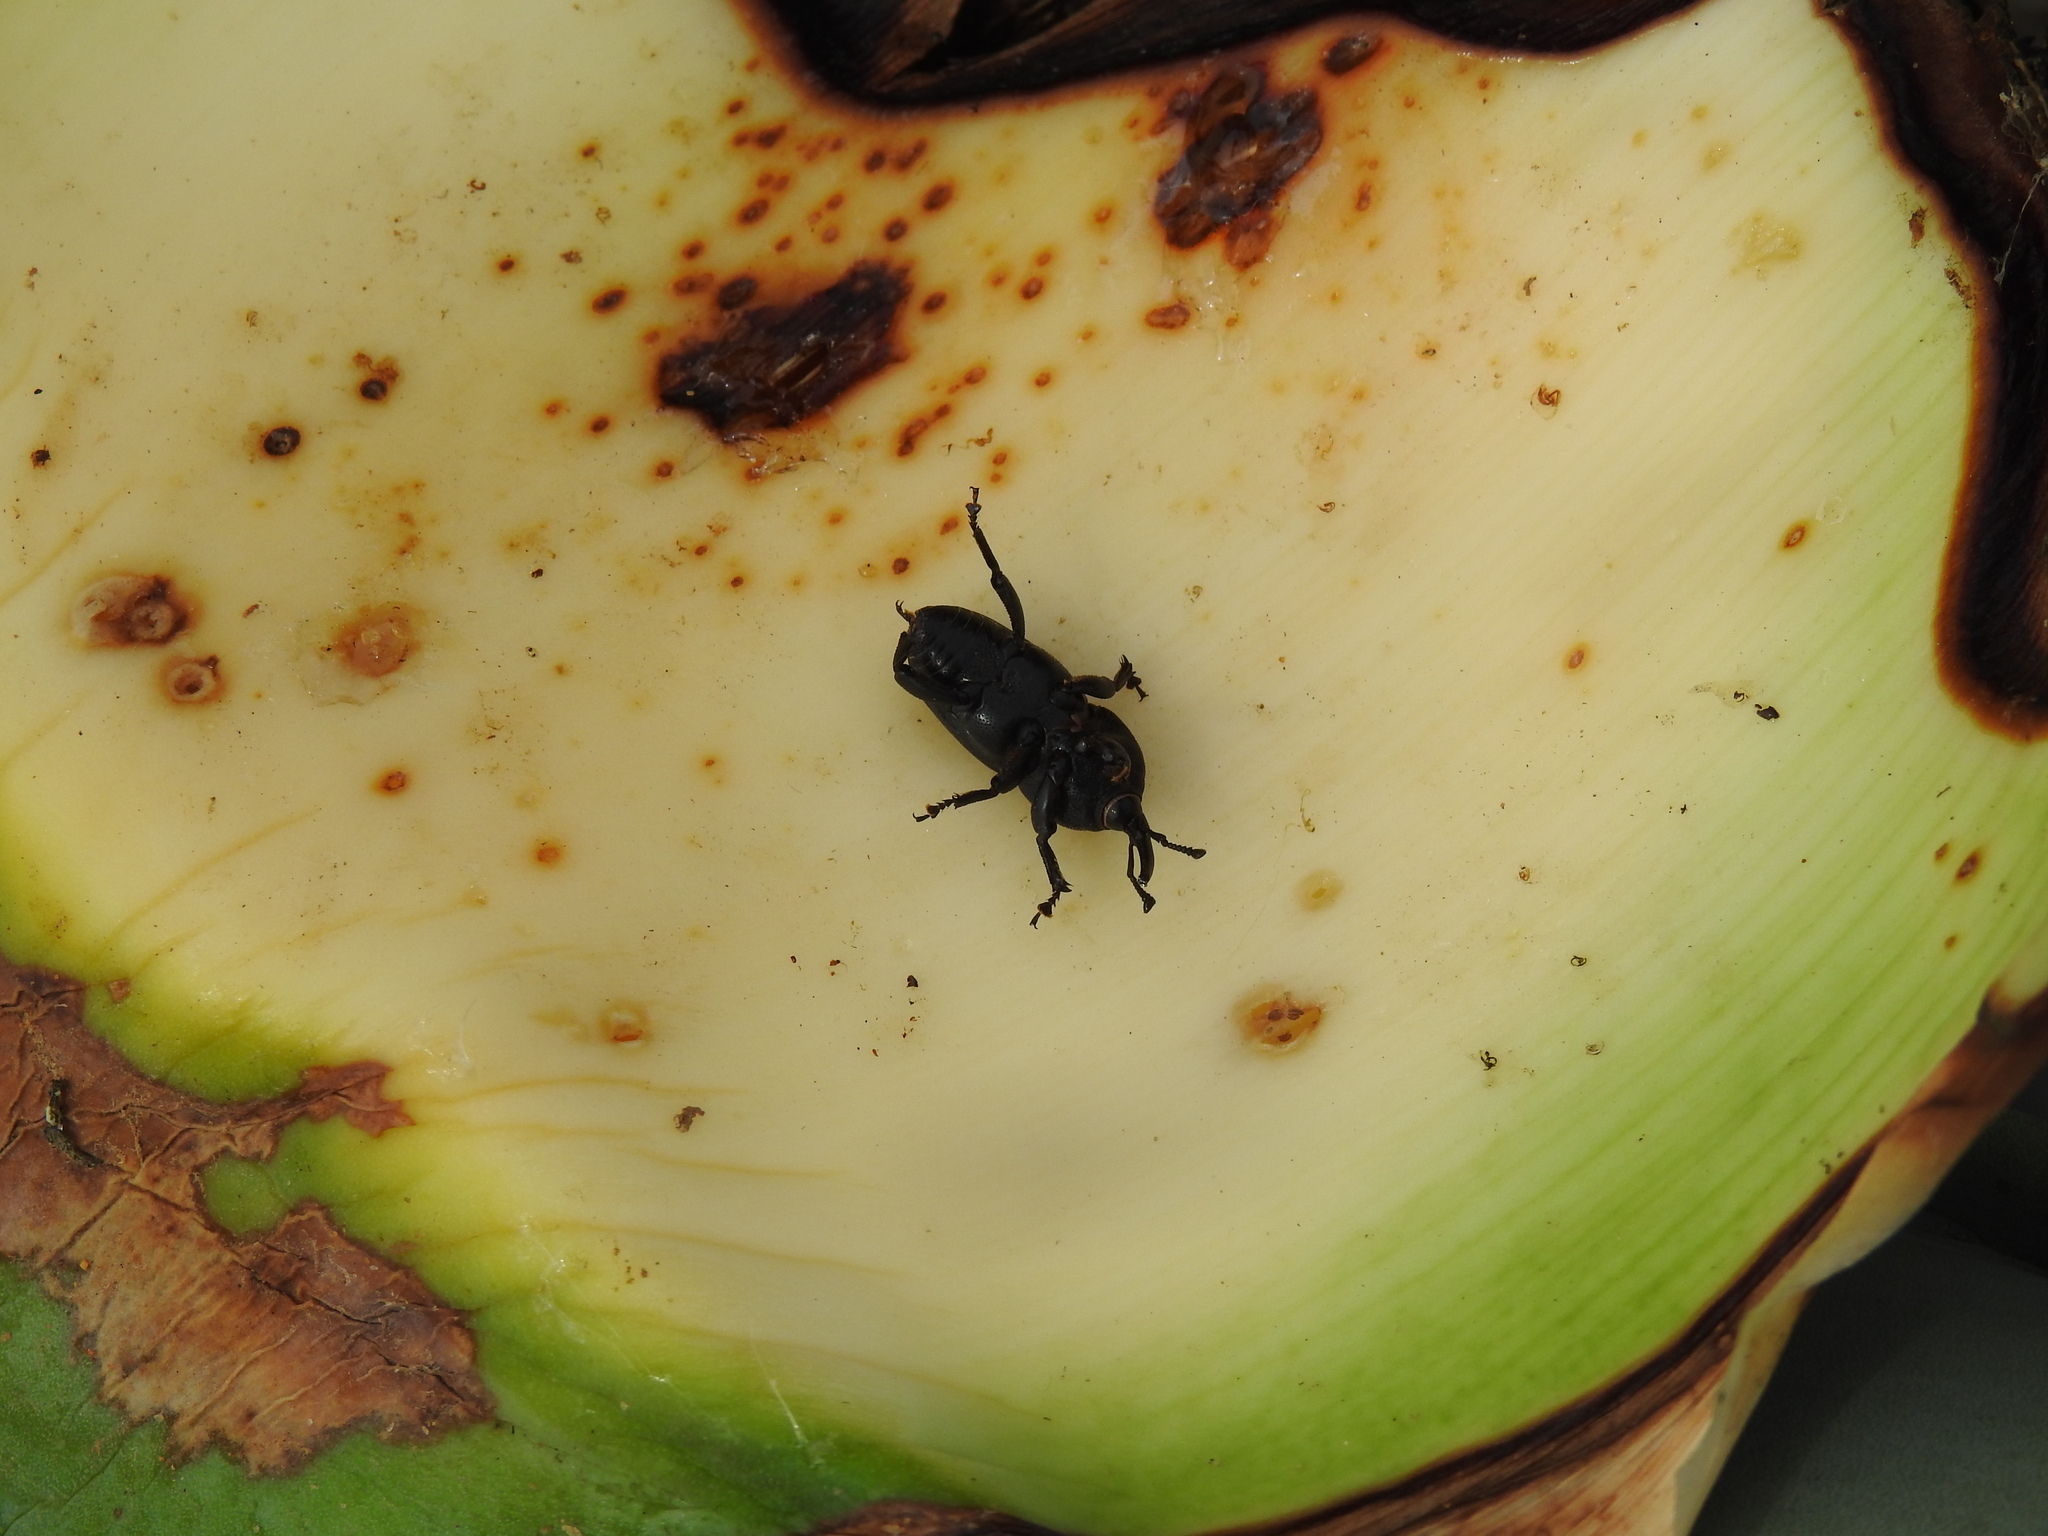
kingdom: Animalia
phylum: Arthropoda
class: Insecta
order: Coleoptera
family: Dryophthoridae
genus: Scyphophorus
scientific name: Scyphophorus acupunctatus
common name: Weevil
